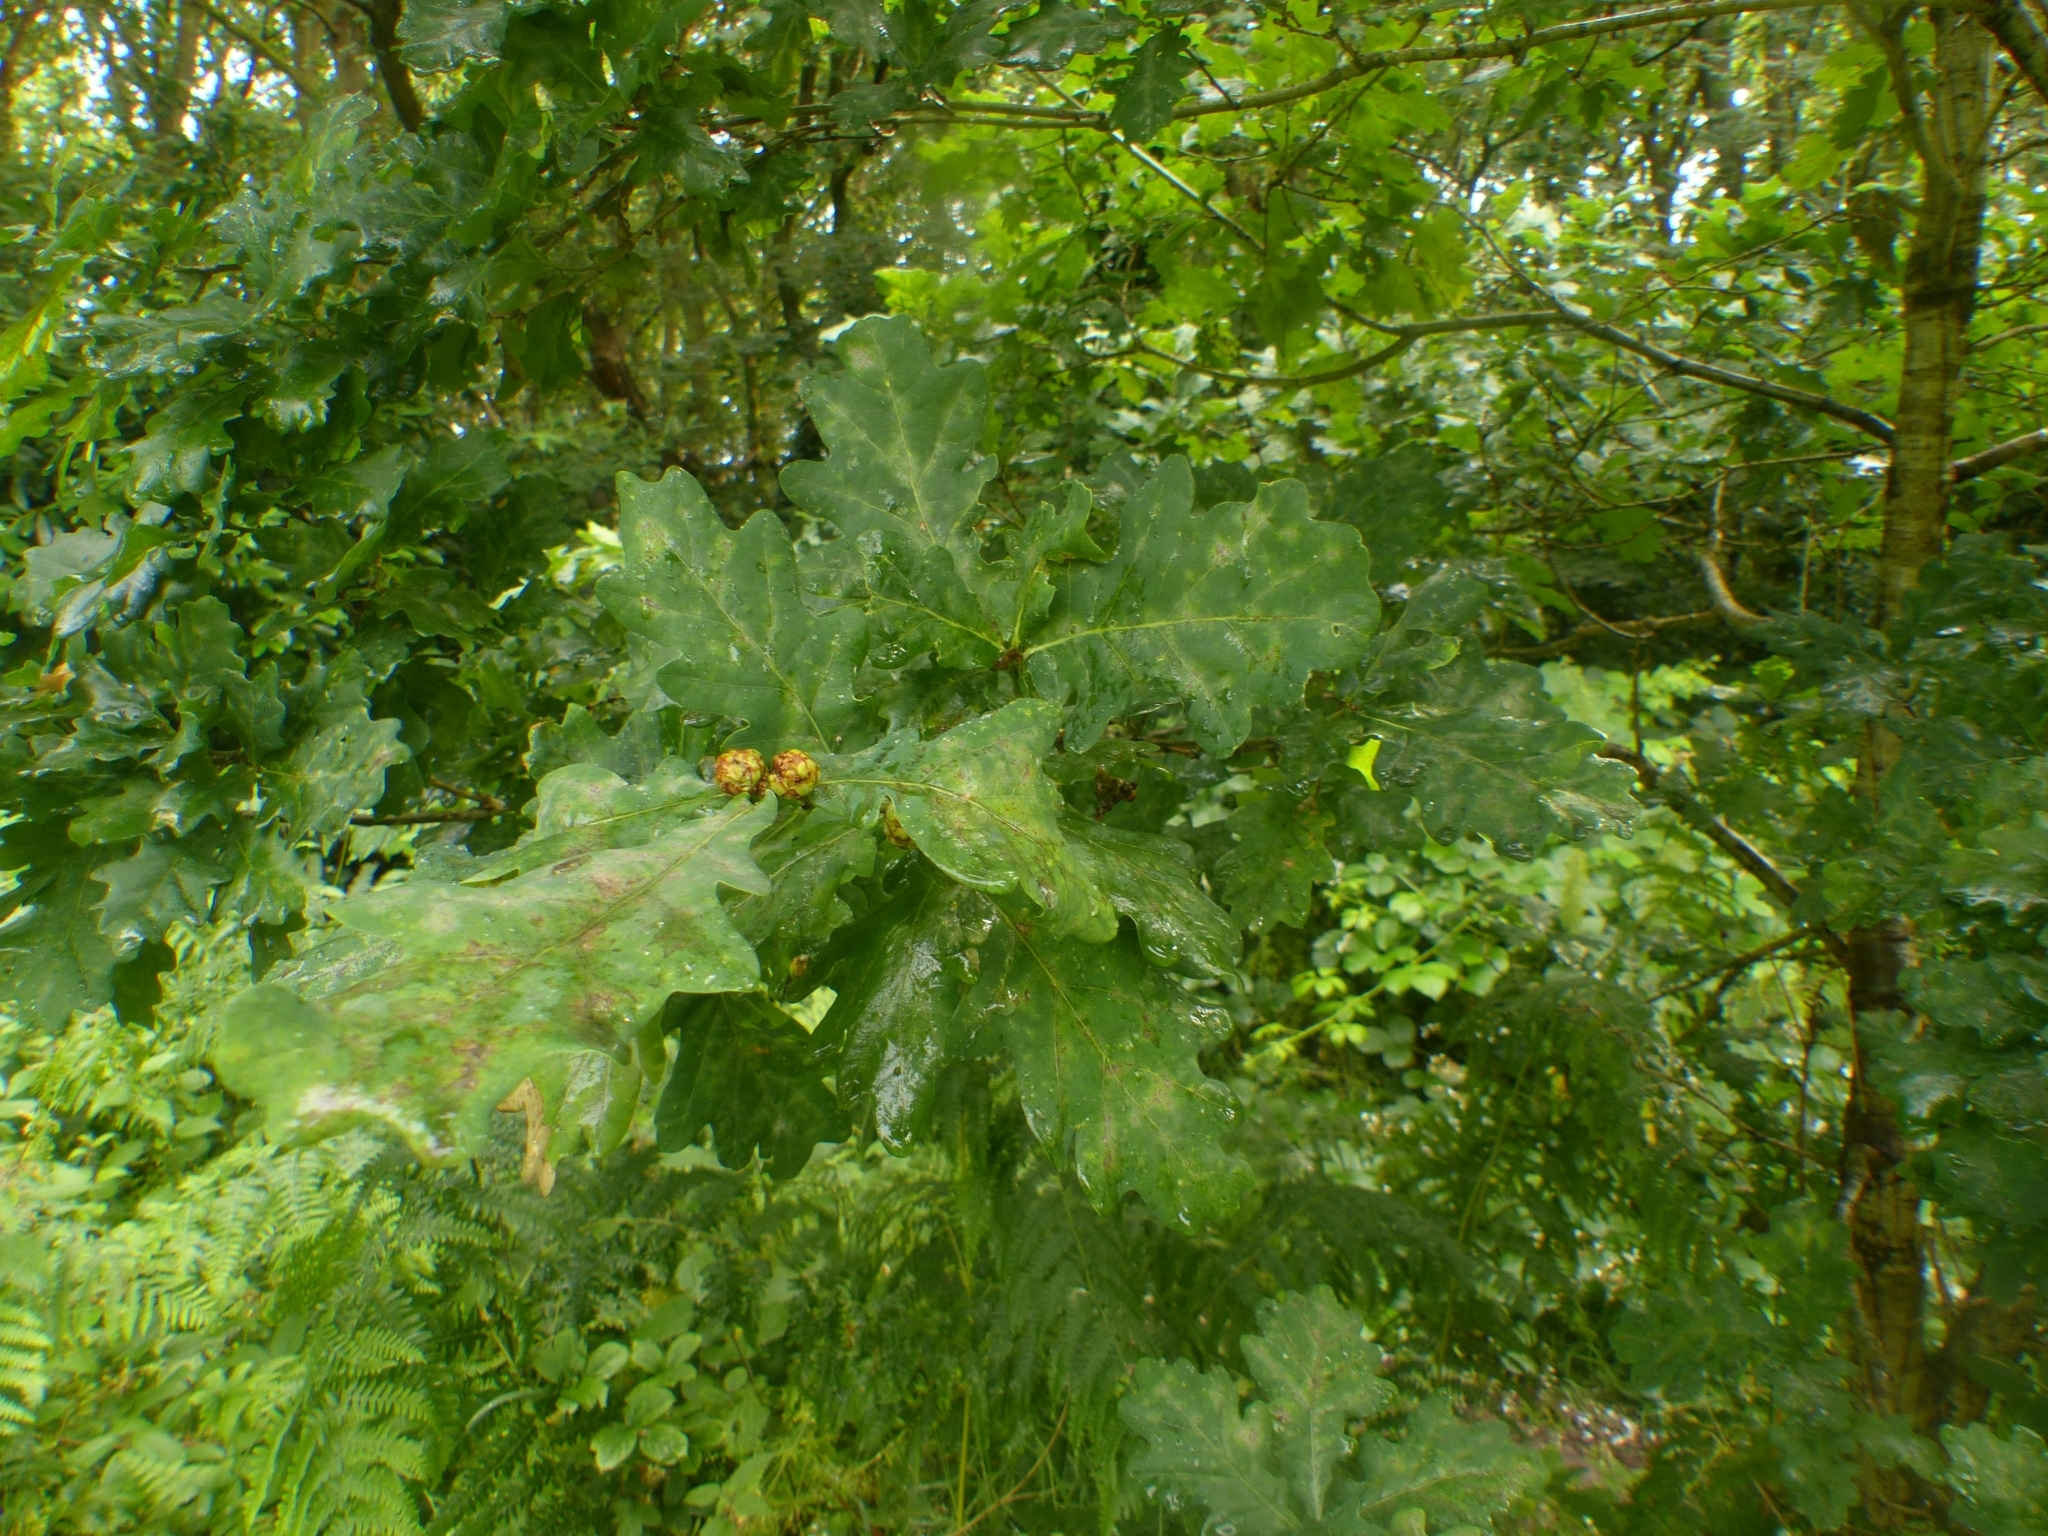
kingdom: Animalia
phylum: Arthropoda
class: Insecta
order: Hymenoptera
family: Cynipidae
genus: Andricus
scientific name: Andricus foecundatrix
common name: Artichoke gall
